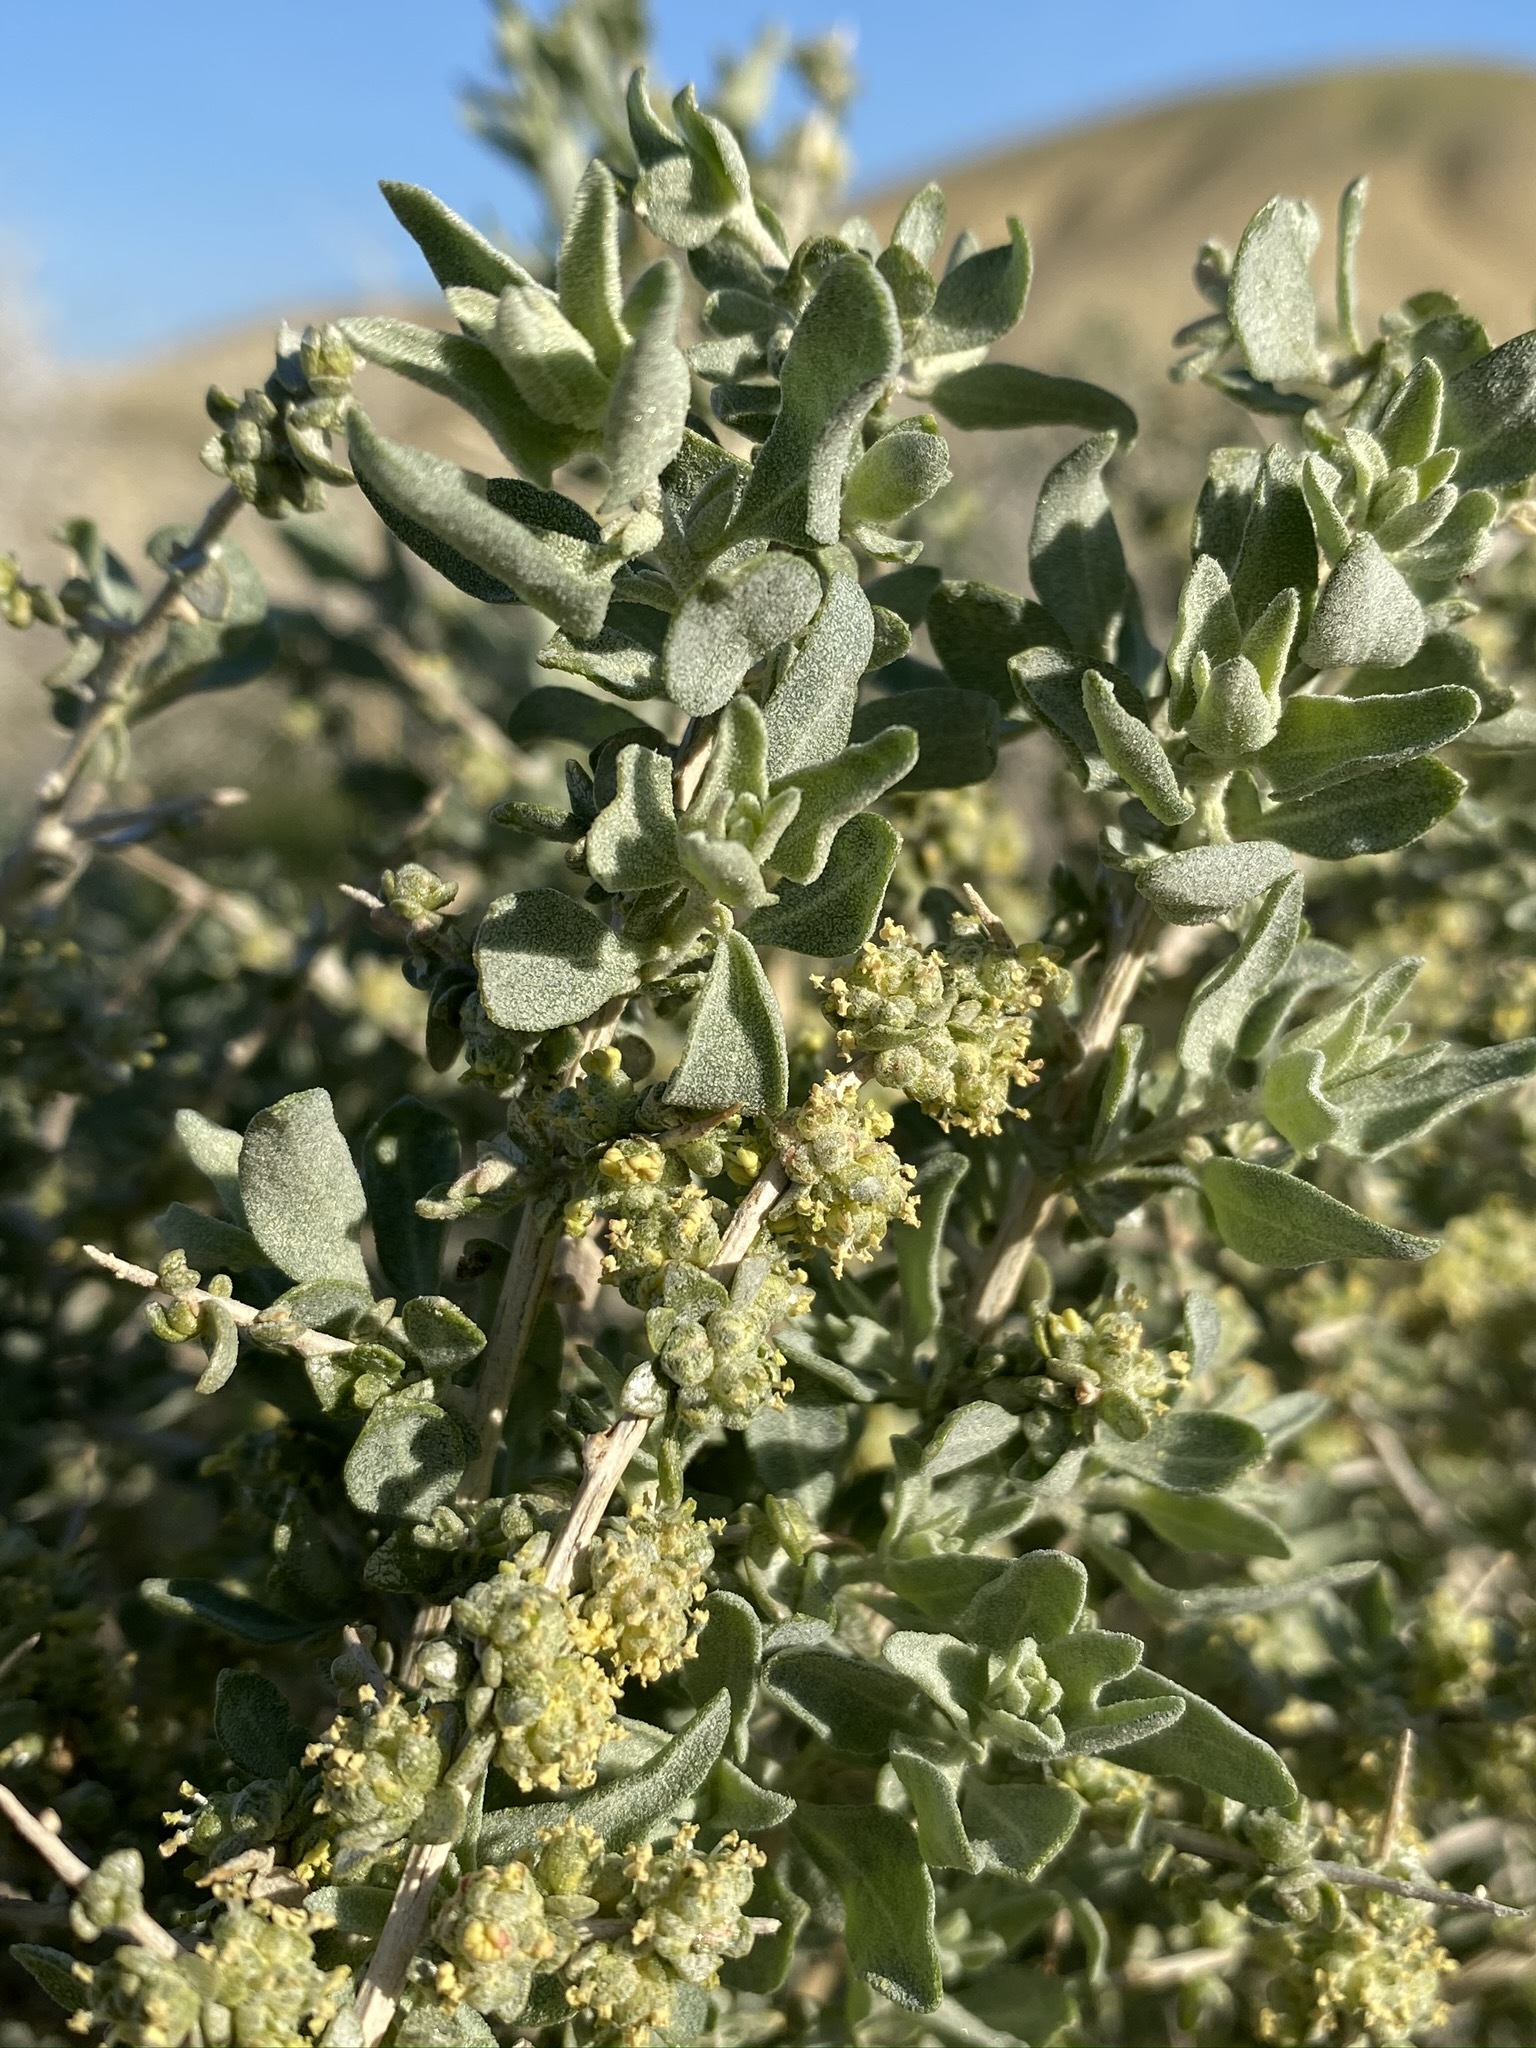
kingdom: Plantae
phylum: Tracheophyta
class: Magnoliopsida
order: Caryophyllales
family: Amaranthaceae
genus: Atriplex
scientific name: Atriplex spinifera
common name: Spiny saltbush
